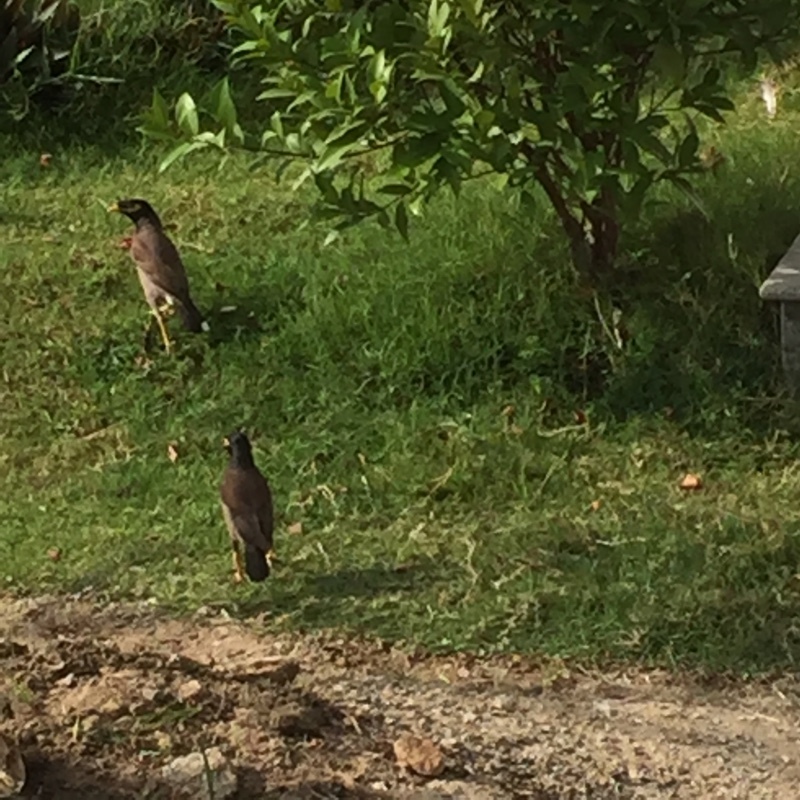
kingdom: Animalia
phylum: Chordata
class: Aves
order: Passeriformes
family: Sturnidae
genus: Acridotheres
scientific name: Acridotheres tristis
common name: Common myna
